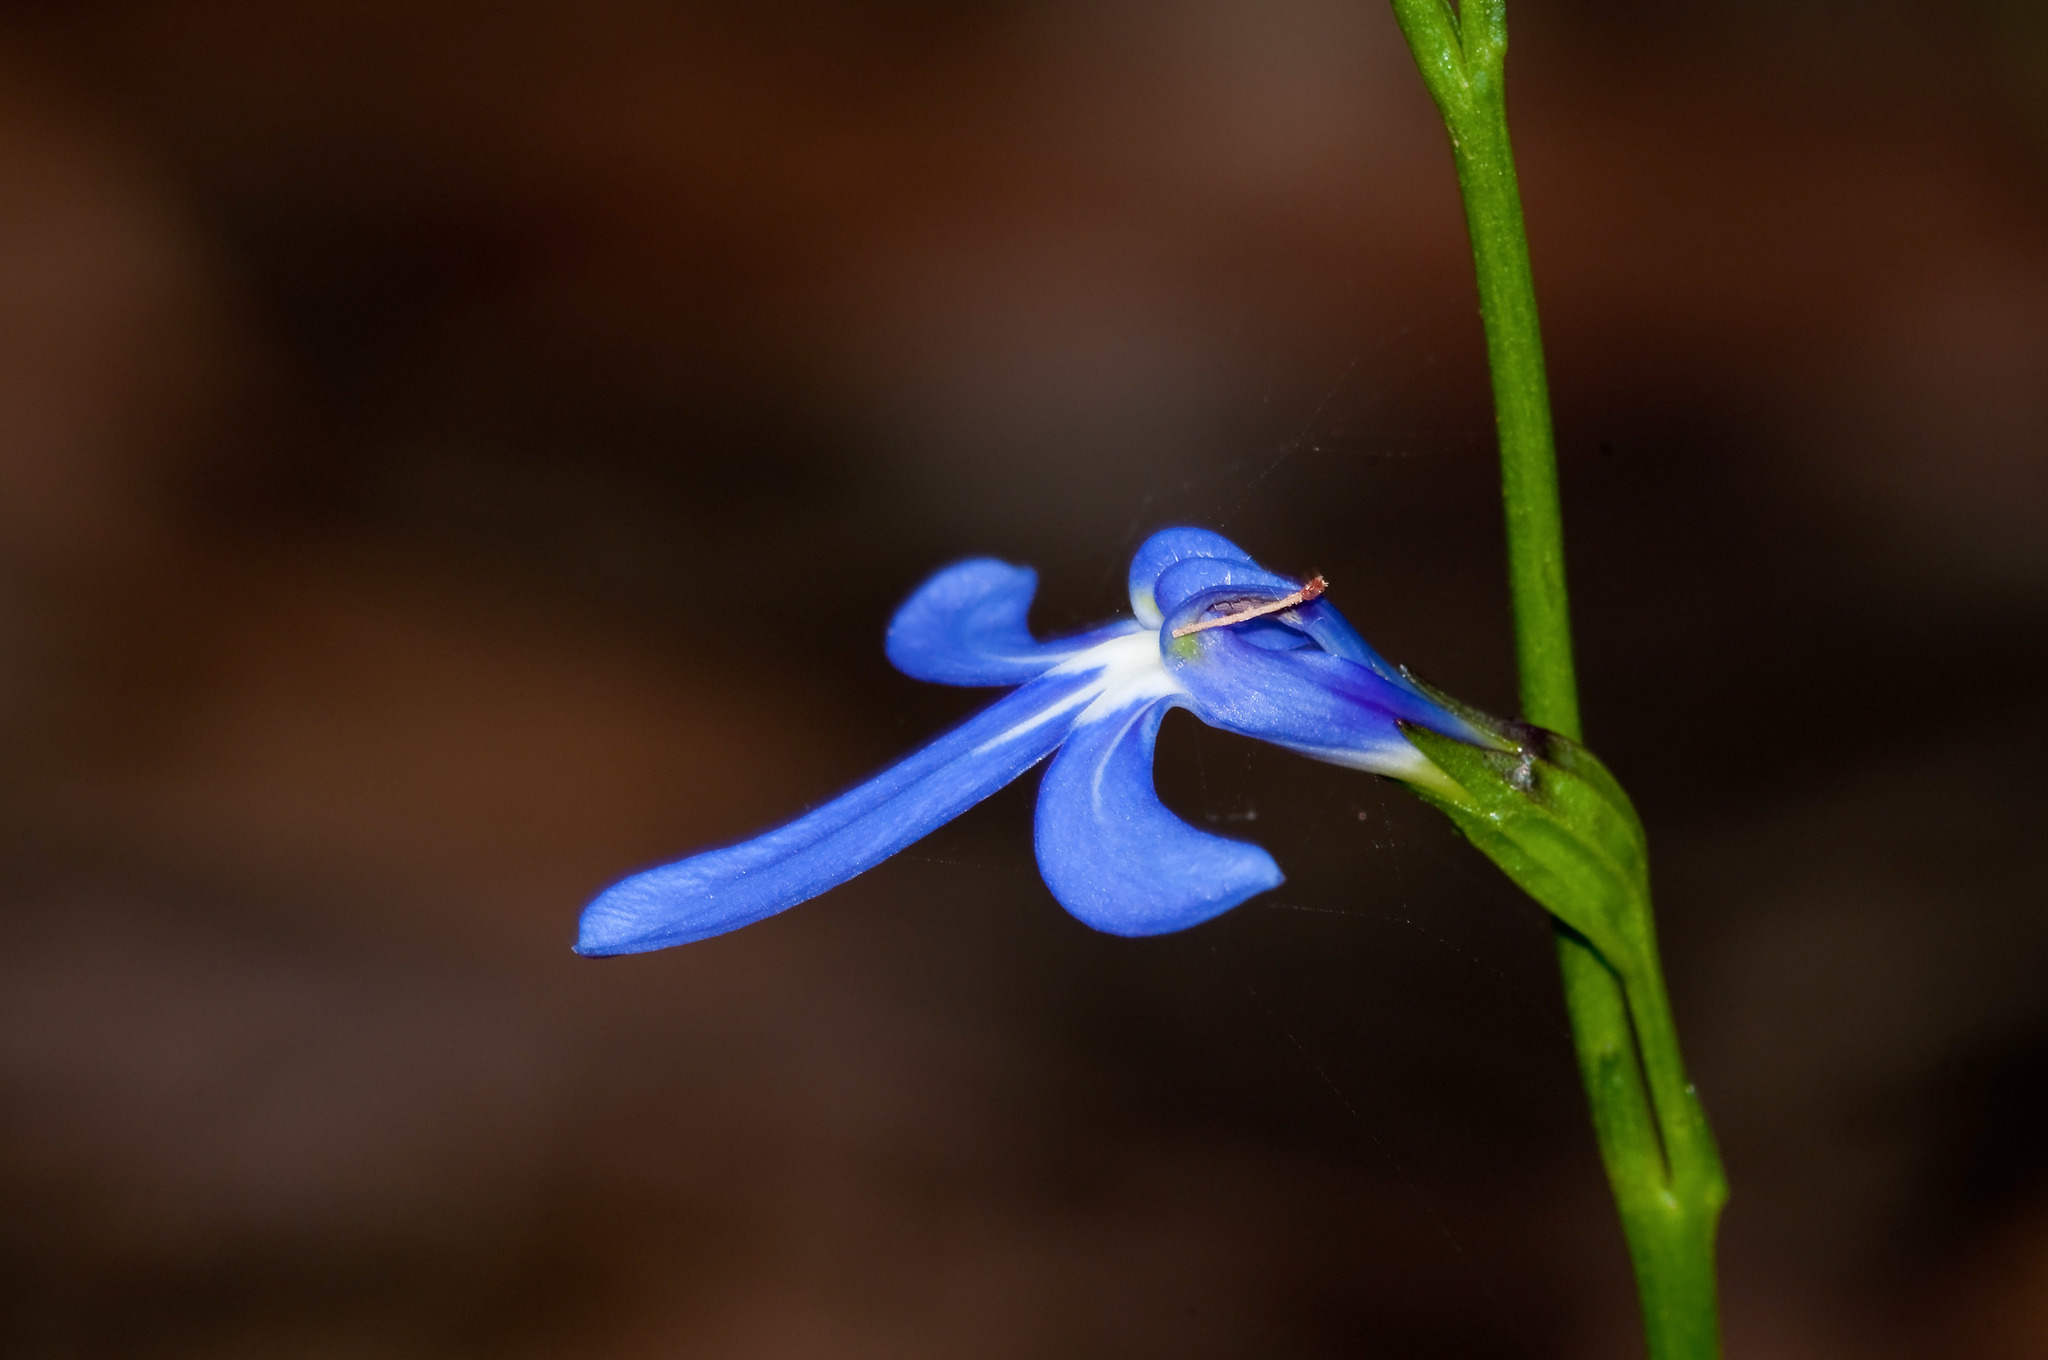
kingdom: Plantae
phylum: Tracheophyta
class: Magnoliopsida
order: Asterales
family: Campanulaceae
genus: Lobelia
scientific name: Lobelia gibbosa
